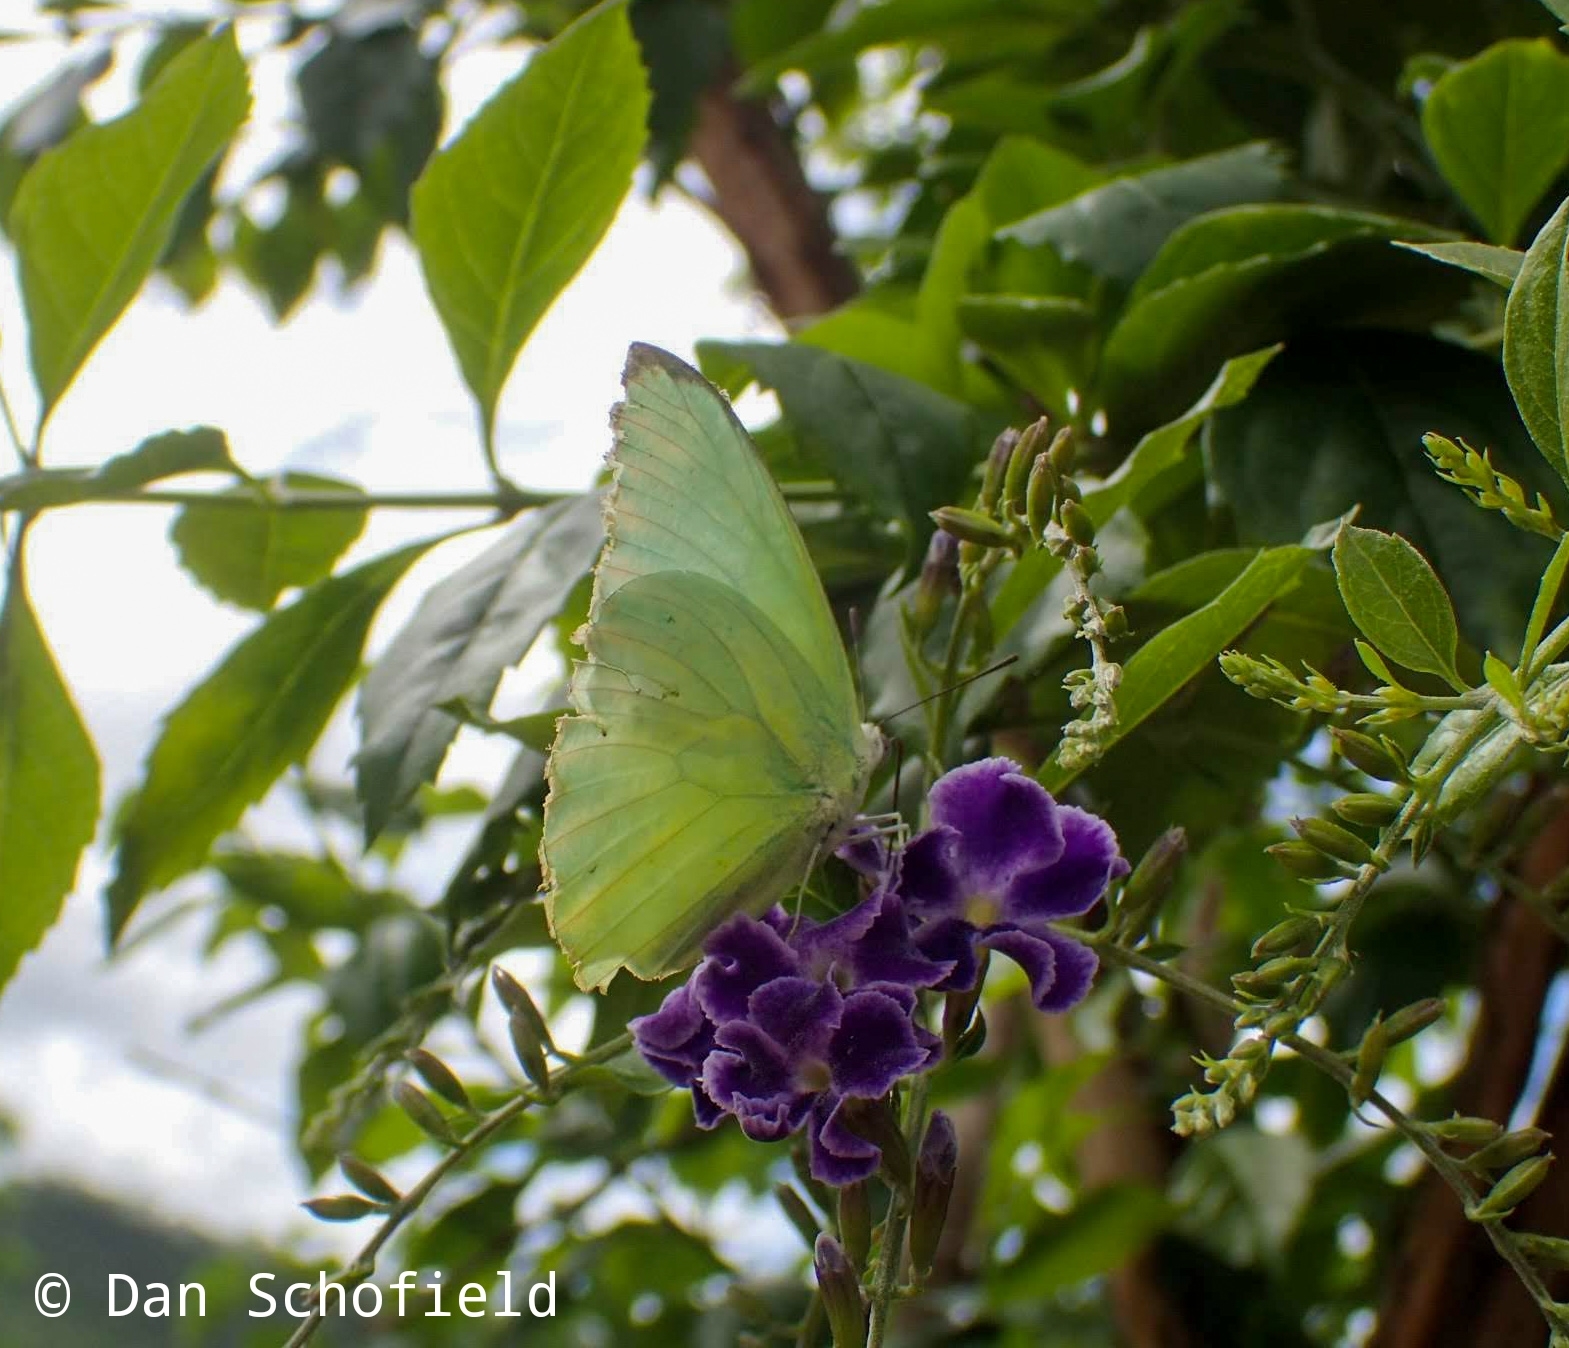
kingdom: Animalia
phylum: Arthropoda
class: Insecta
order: Lepidoptera
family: Pieridae
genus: Catopsilia
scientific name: Catopsilia pomona
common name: Common emigrant
